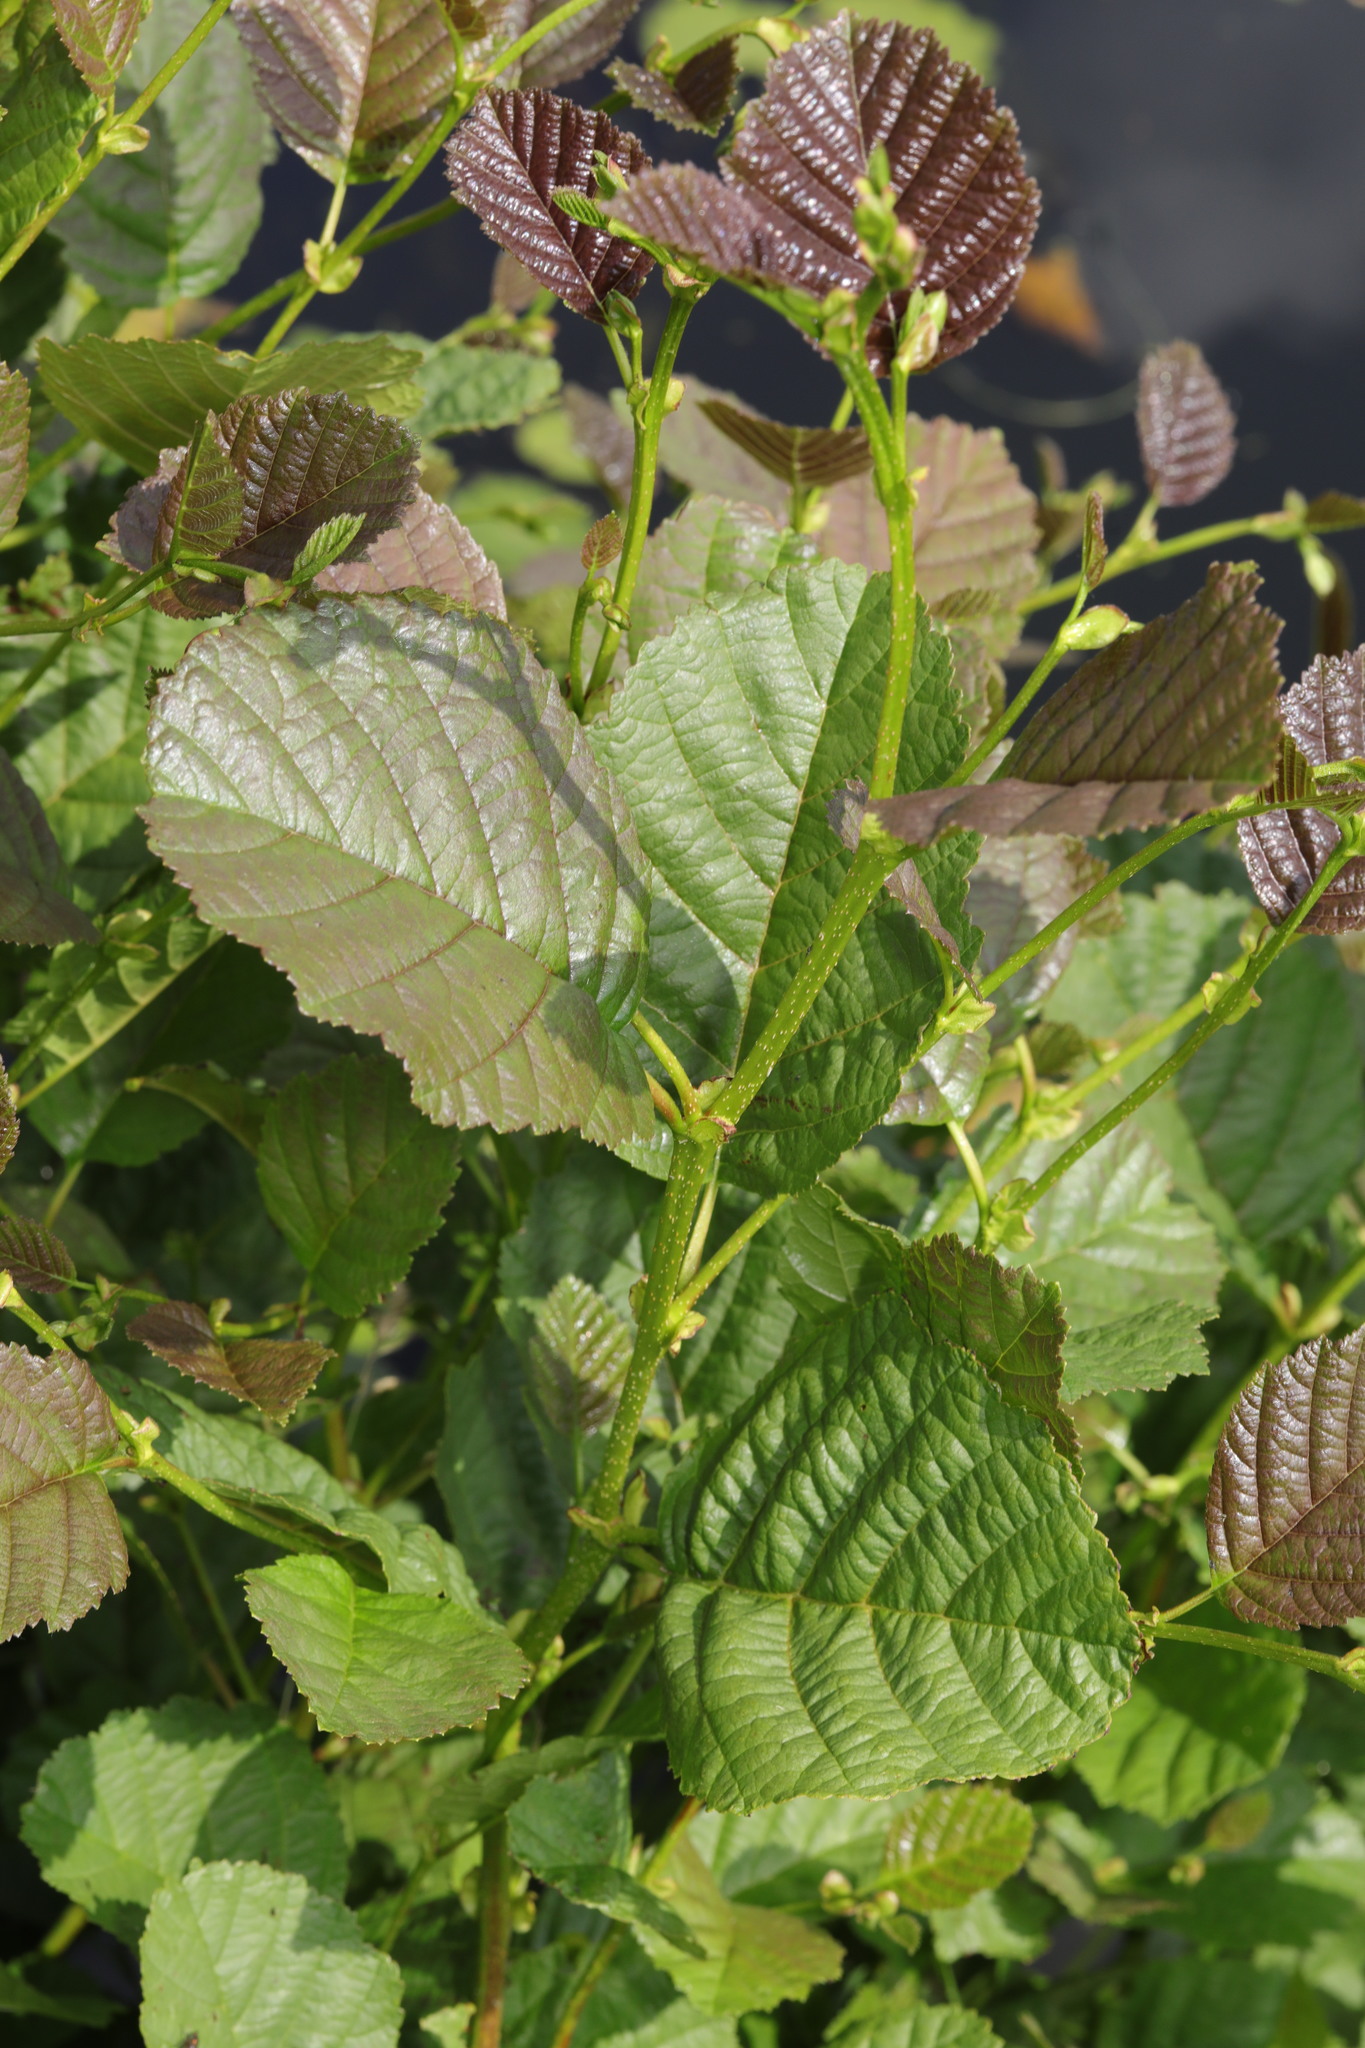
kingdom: Plantae
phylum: Tracheophyta
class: Magnoliopsida
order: Fagales
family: Betulaceae
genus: Alnus
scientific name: Alnus glutinosa
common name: Black alder
